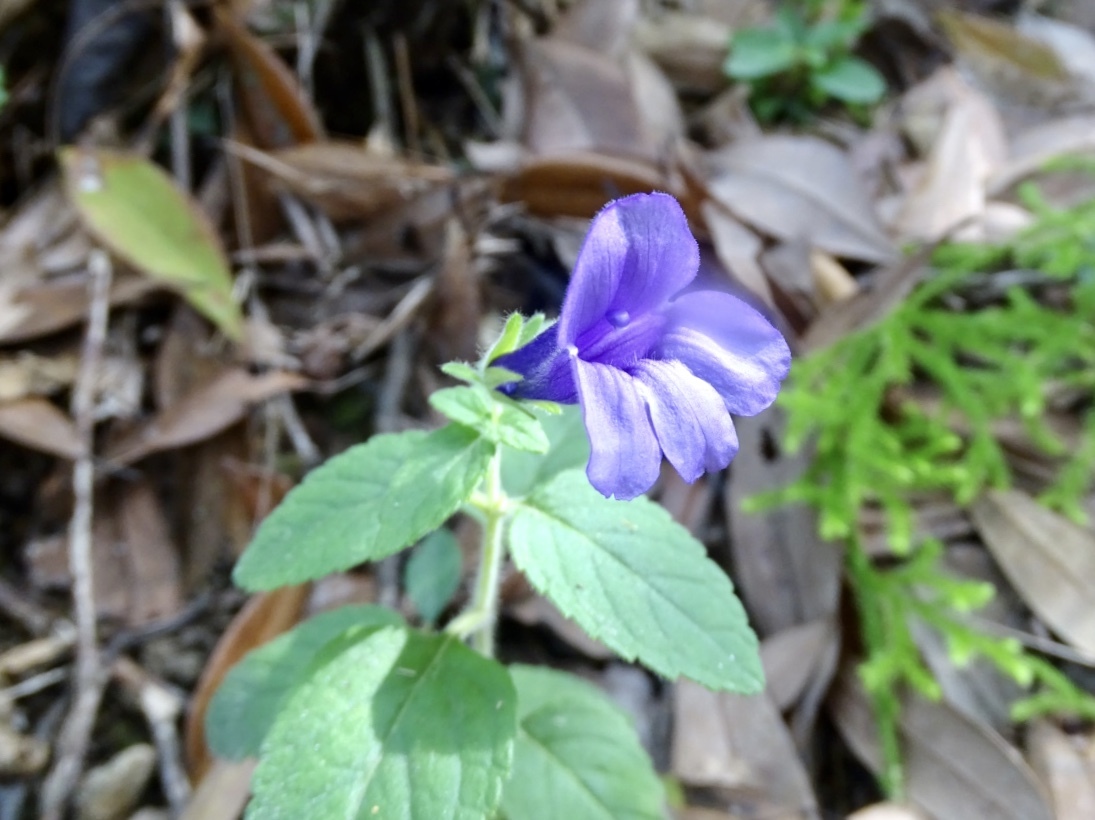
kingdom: Plantae
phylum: Tracheophyta
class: Magnoliopsida
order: Lamiales
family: Plantaginaceae
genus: Adenosma
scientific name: Adenosma glutinosa
